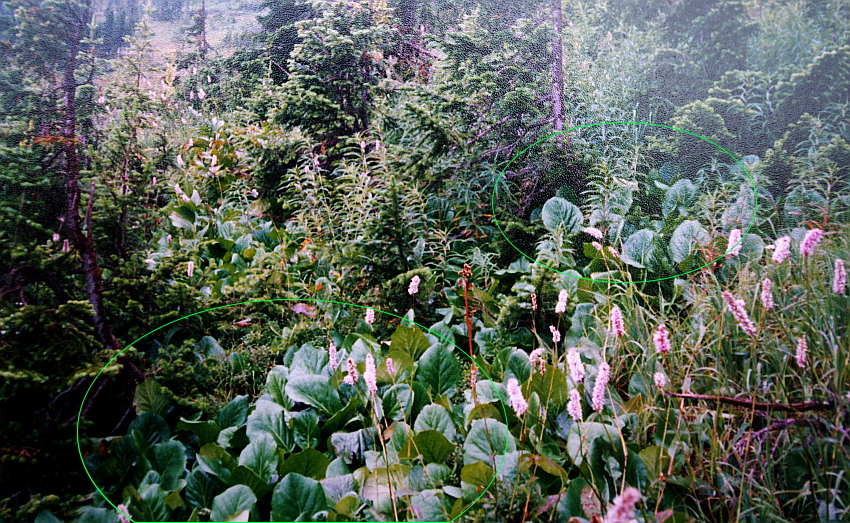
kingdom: Plantae
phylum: Tracheophyta
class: Magnoliopsida
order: Saxifragales
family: Saxifragaceae
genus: Bergenia
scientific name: Bergenia crassifolia
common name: Elephant-ears
